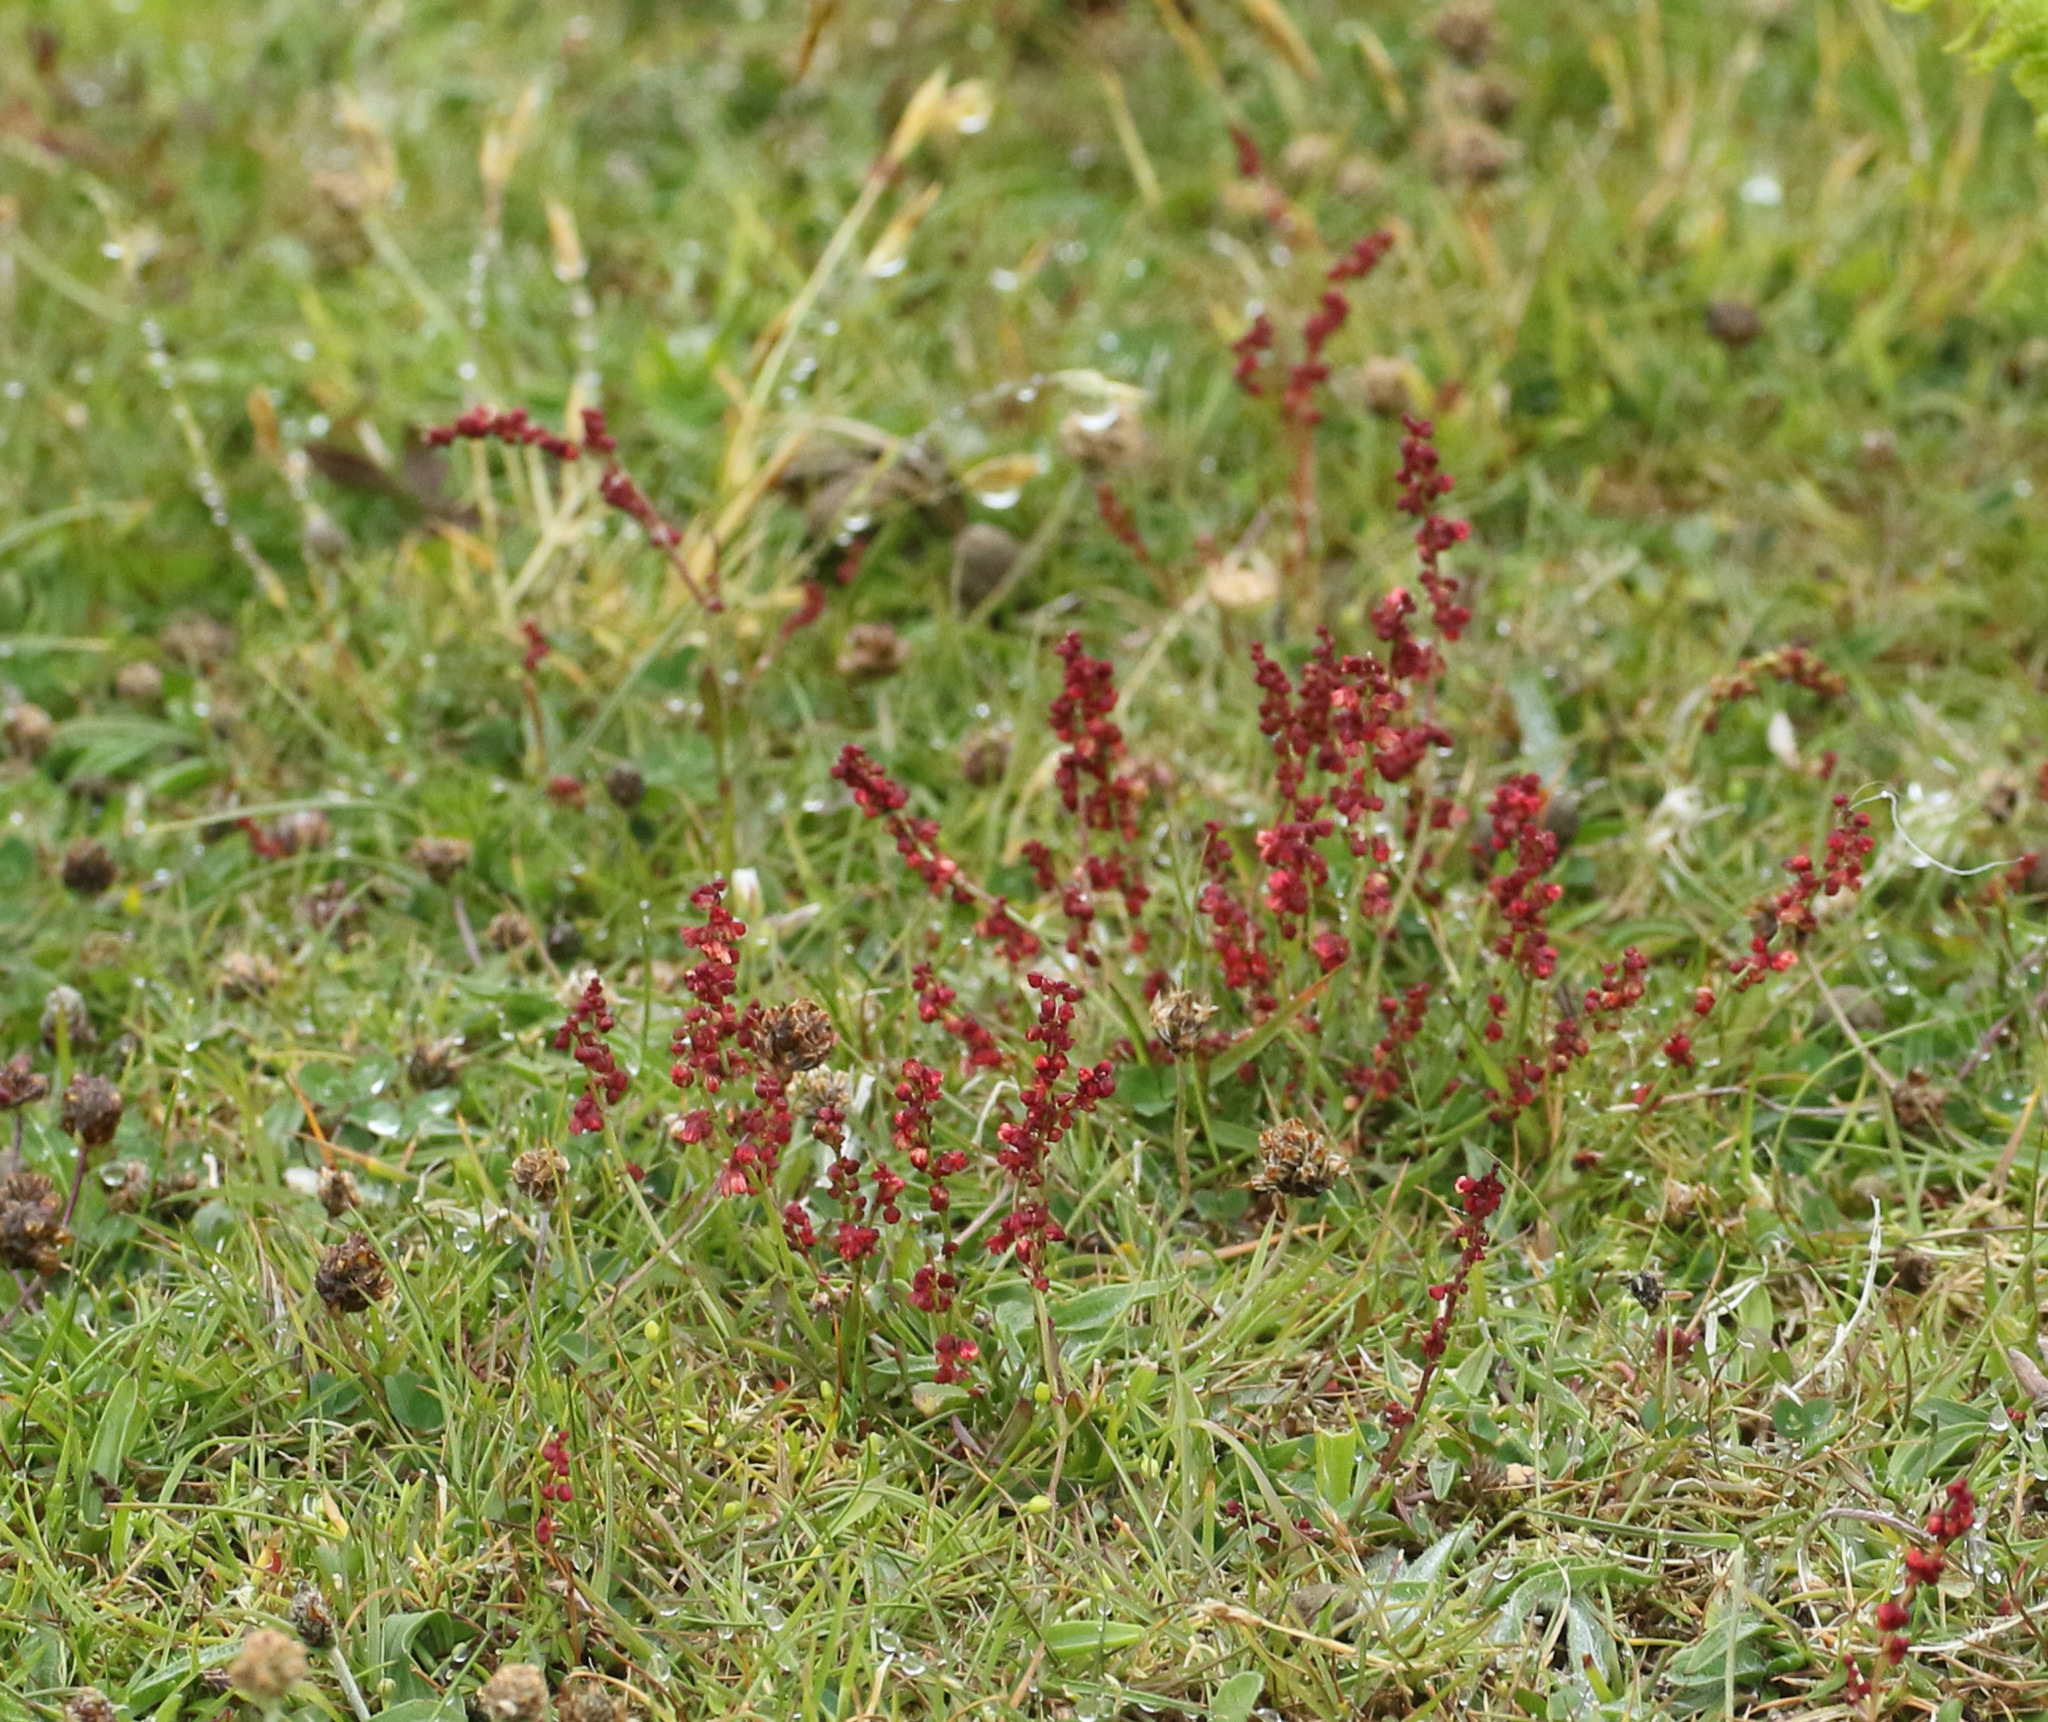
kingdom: Plantae
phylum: Tracheophyta
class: Magnoliopsida
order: Caryophyllales
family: Polygonaceae
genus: Rumex
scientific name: Rumex acetosella
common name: Common sheep sorrel
